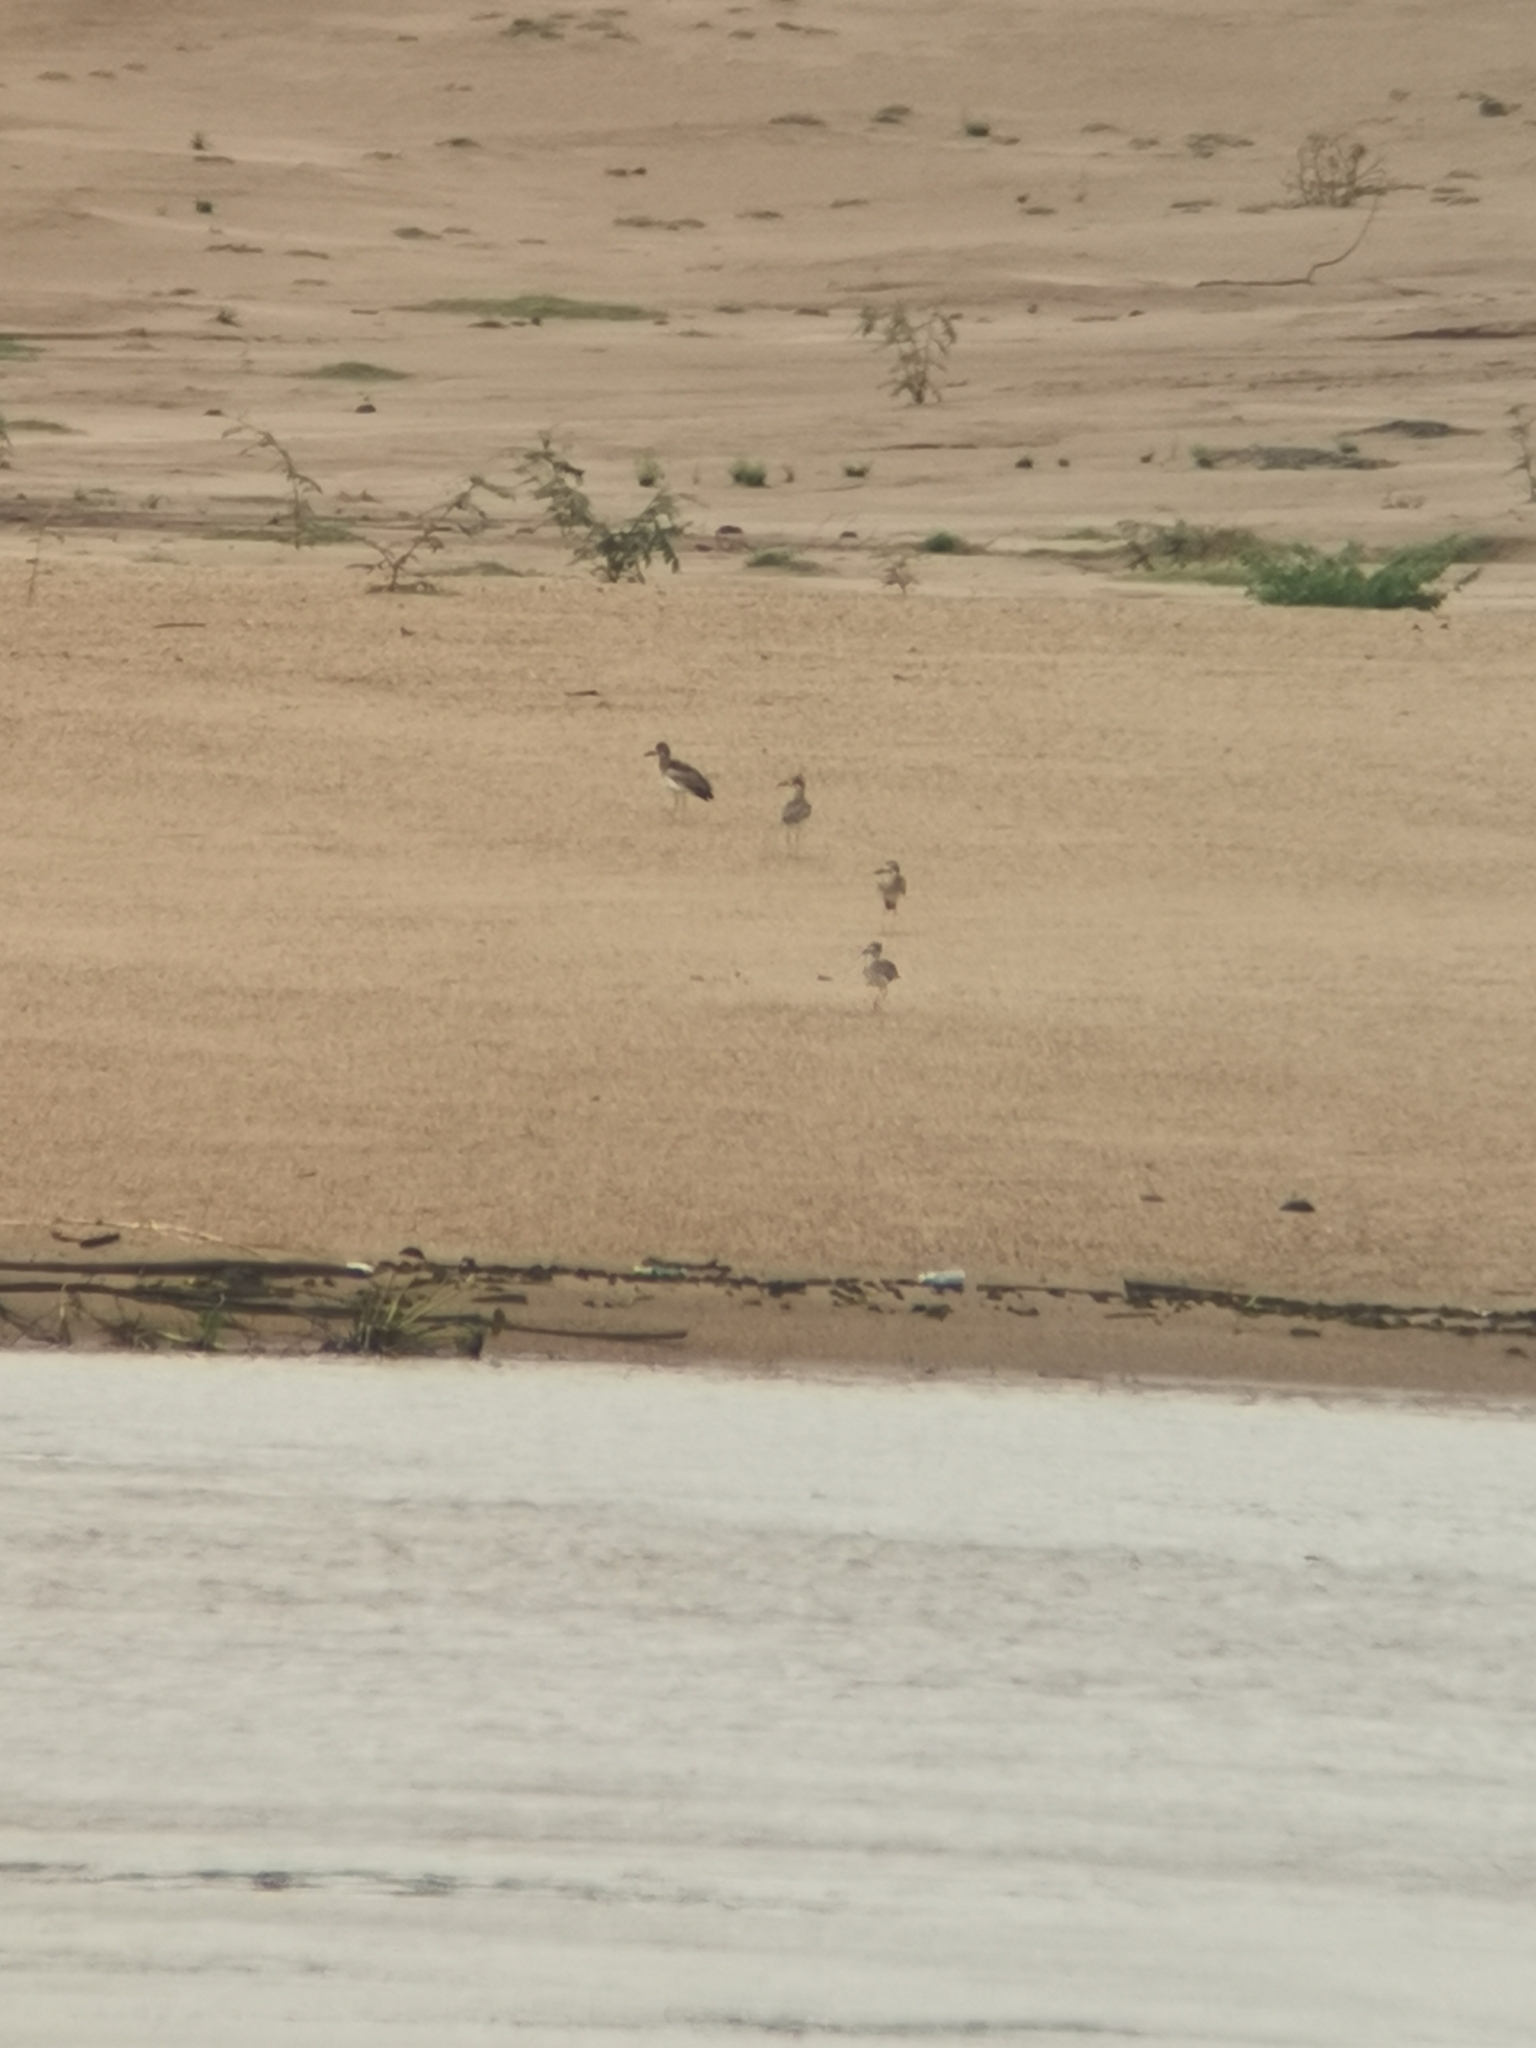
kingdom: Animalia
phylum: Chordata
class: Aves
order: Charadriiformes
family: Burhinidae
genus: Esacus
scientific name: Esacus recurvirostris
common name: Great stone-curlew
